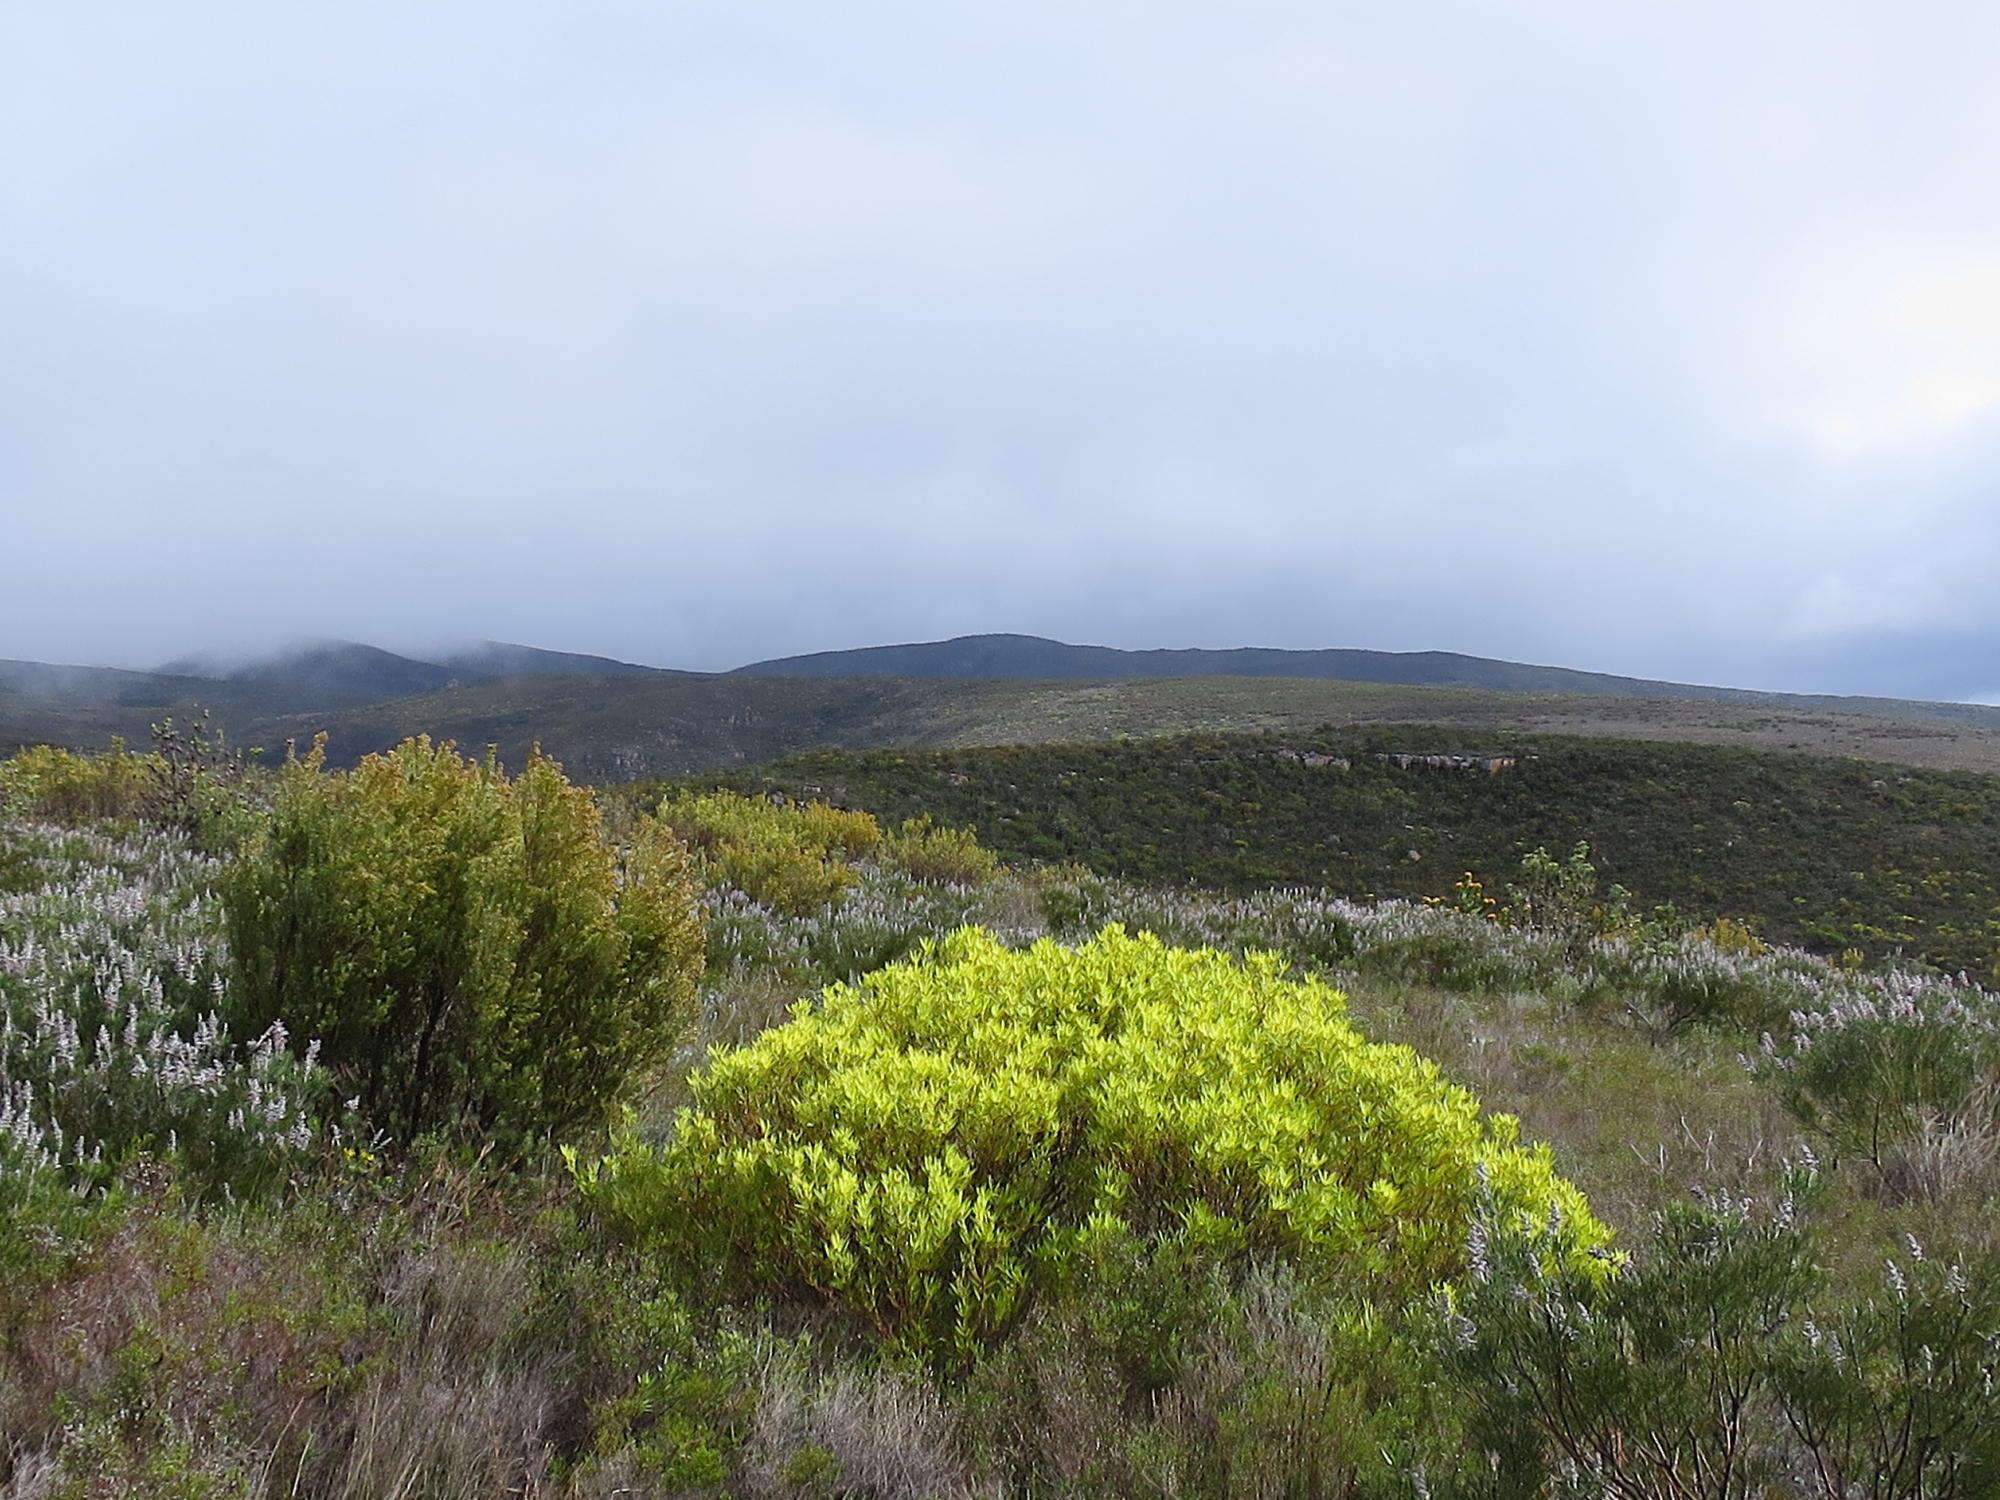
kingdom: Plantae
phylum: Tracheophyta
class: Magnoliopsida
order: Proteales
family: Proteaceae
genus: Leucadendron
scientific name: Leucadendron salignum
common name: Common sunshine conebush
